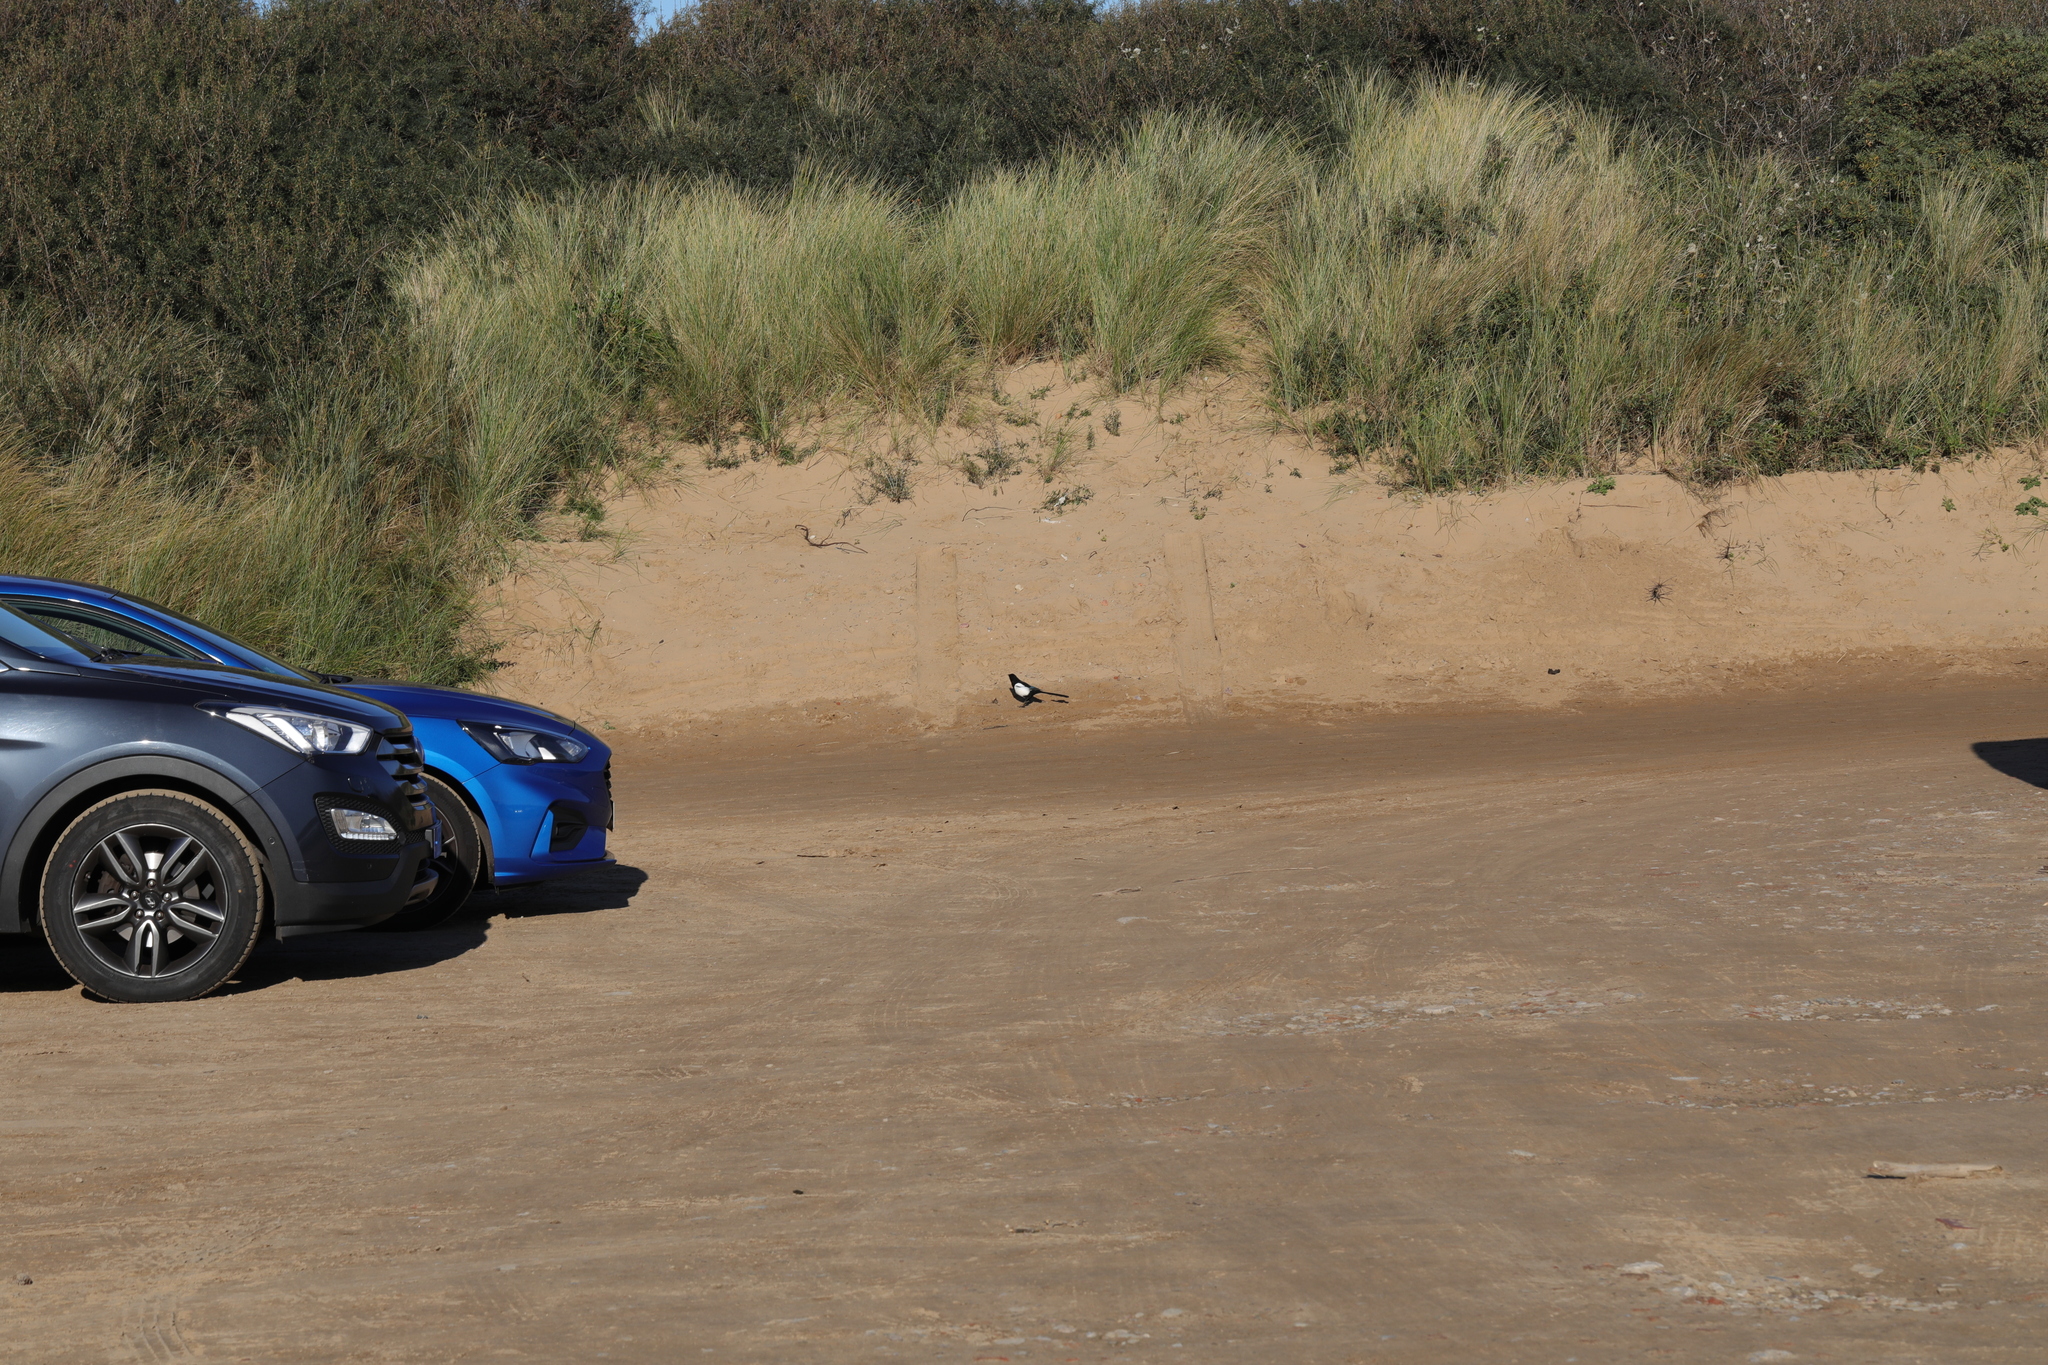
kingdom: Animalia
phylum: Chordata
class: Aves
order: Passeriformes
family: Corvidae
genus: Pica
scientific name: Pica pica
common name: Eurasian magpie
